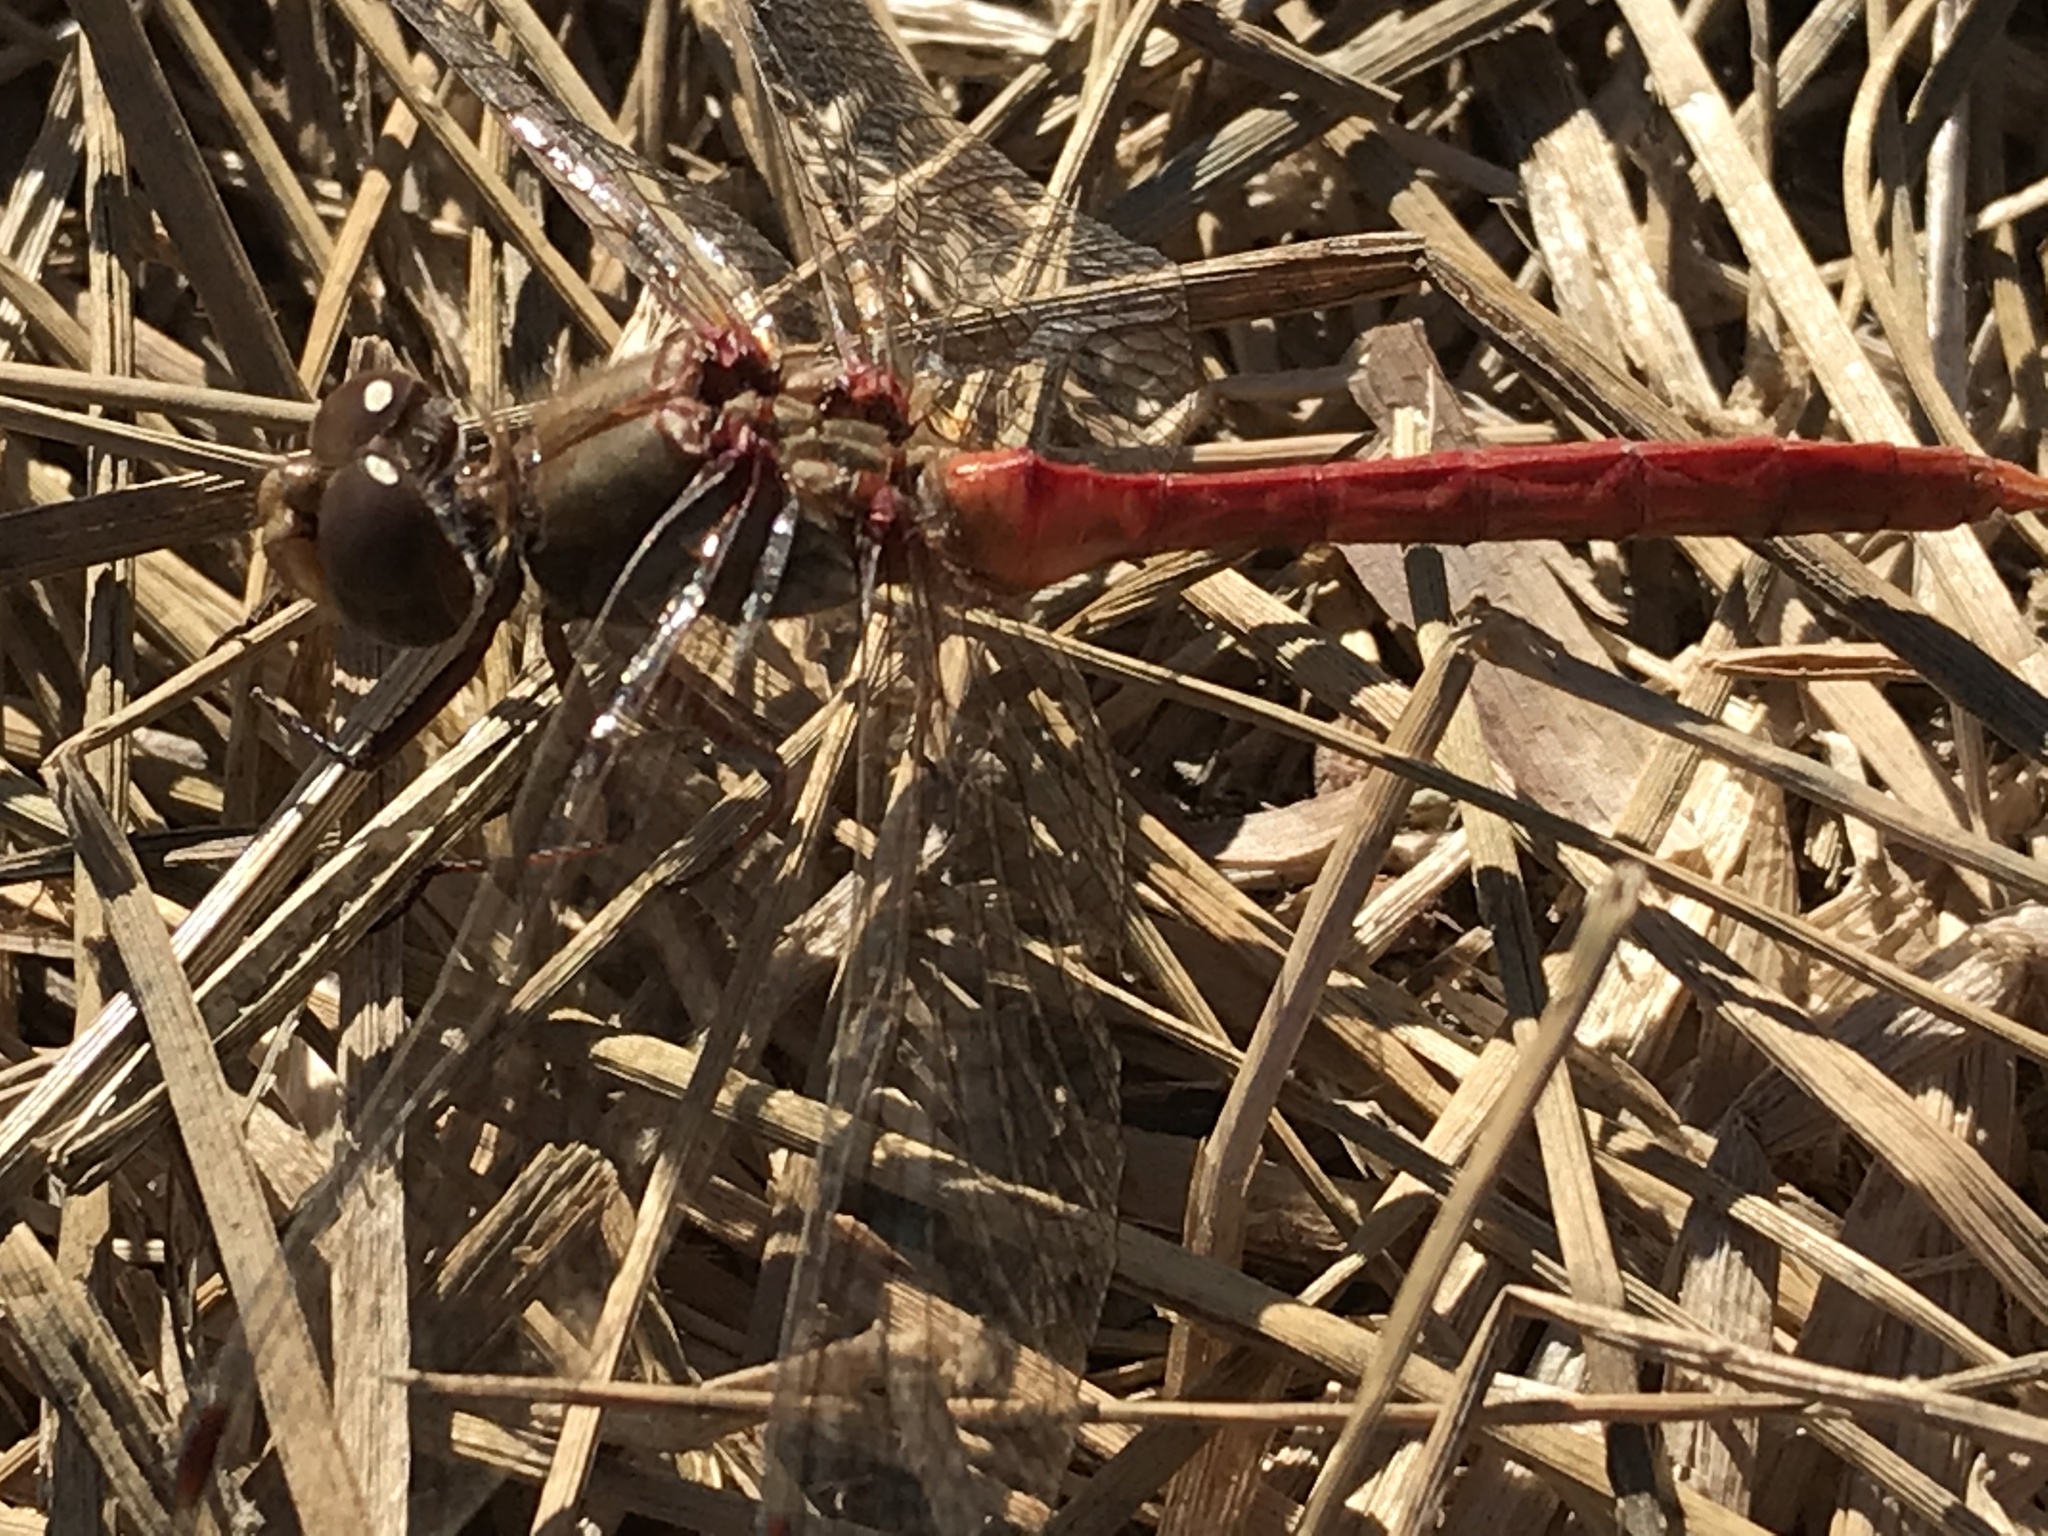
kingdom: Animalia
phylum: Arthropoda
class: Insecta
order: Odonata
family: Libellulidae
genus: Sympetrum
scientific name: Sympetrum pallipes
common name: Striped meadowhawk
